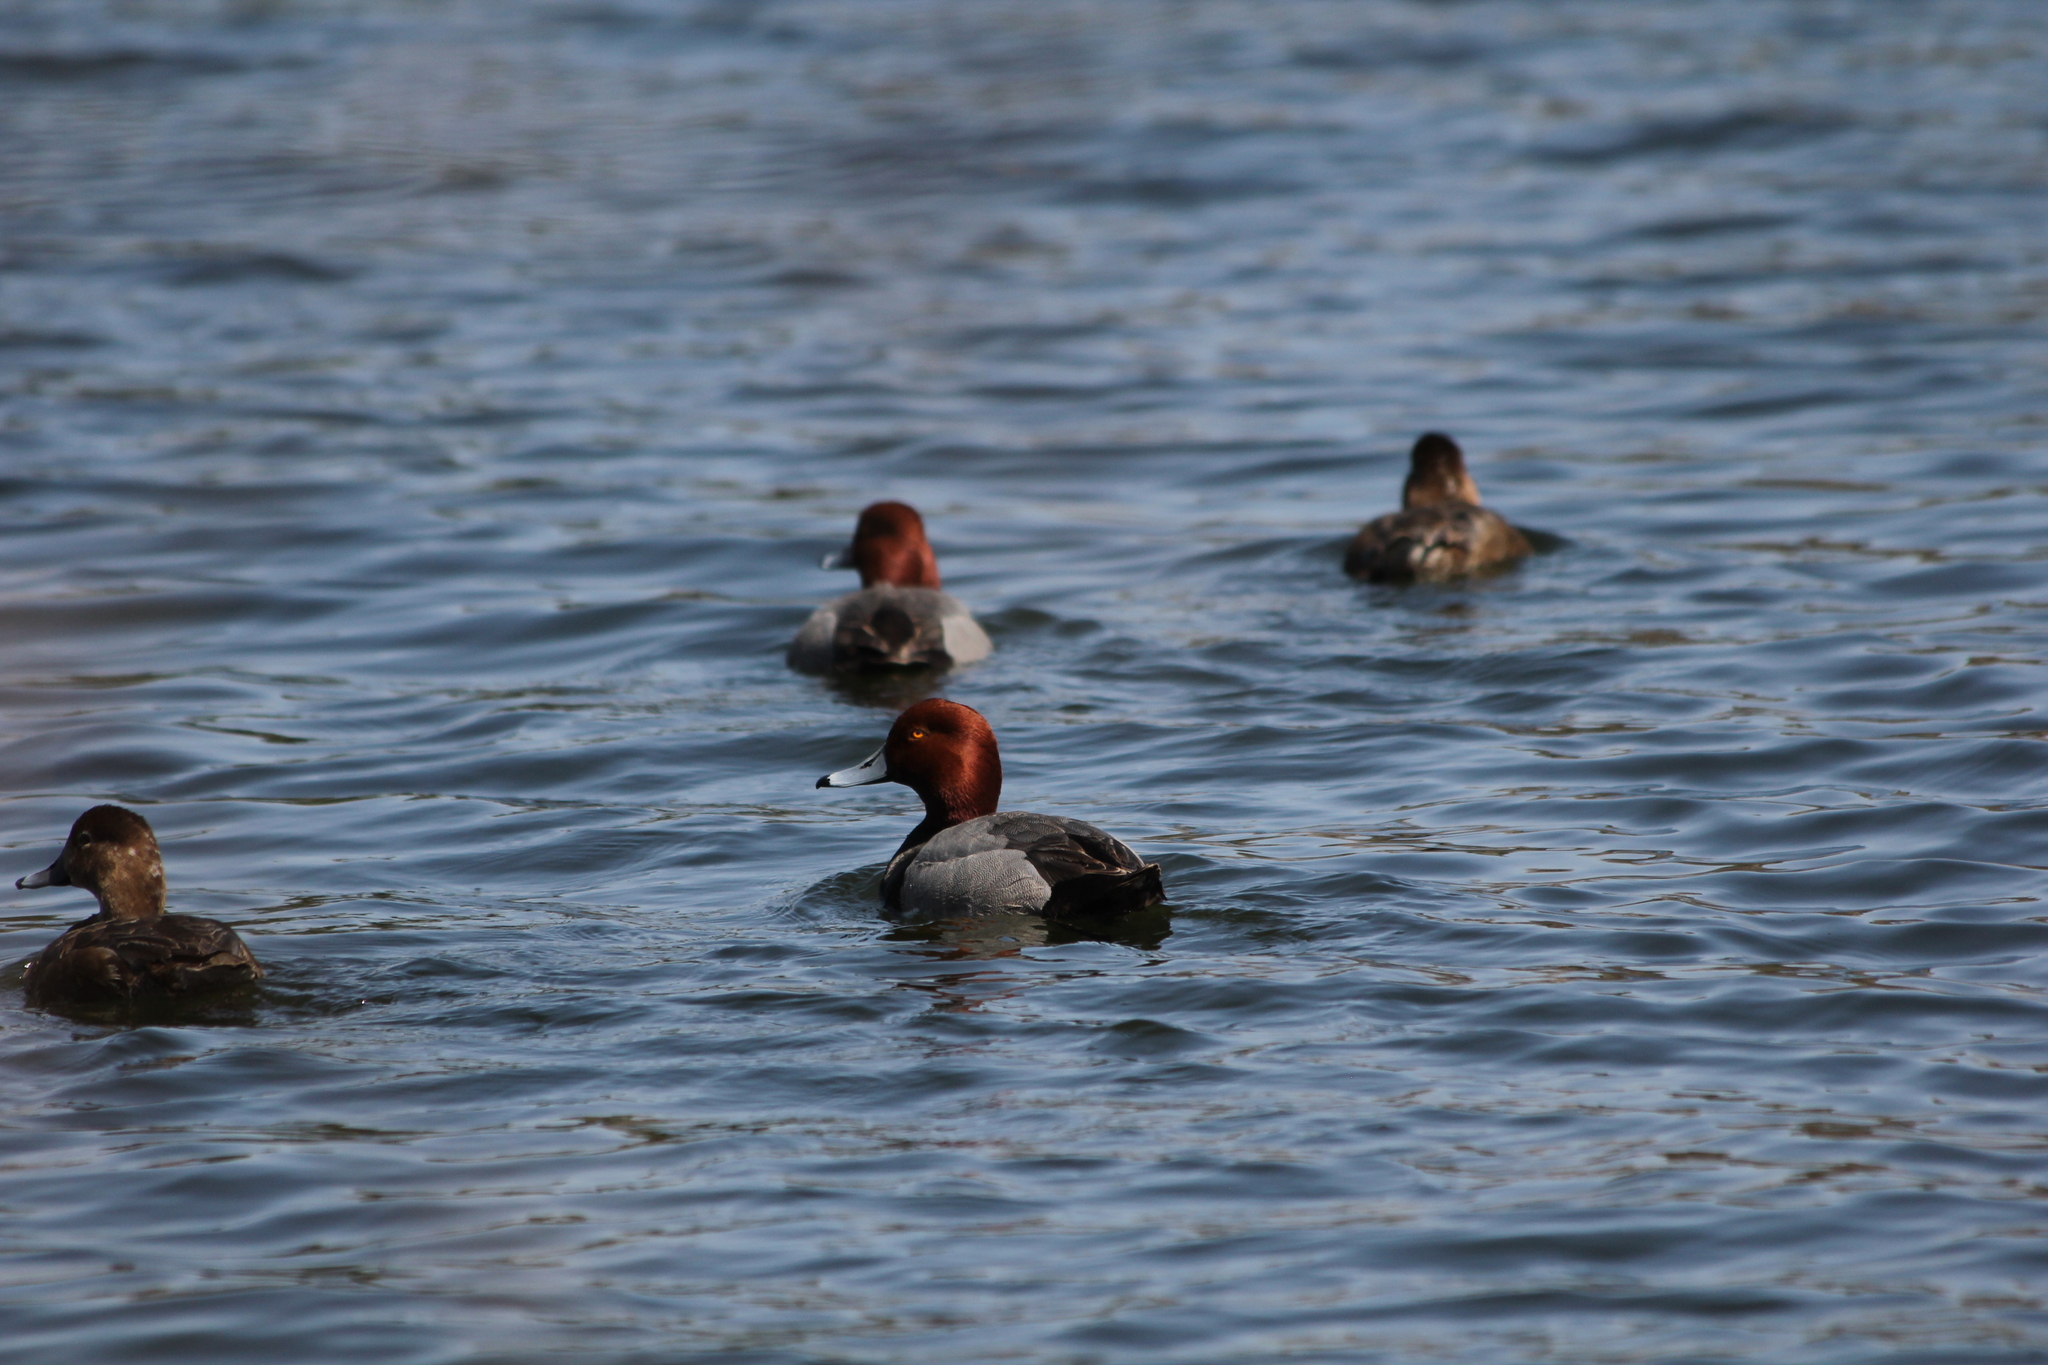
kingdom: Animalia
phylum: Chordata
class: Aves
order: Anseriformes
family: Anatidae
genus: Aythya
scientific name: Aythya americana
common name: Redhead
